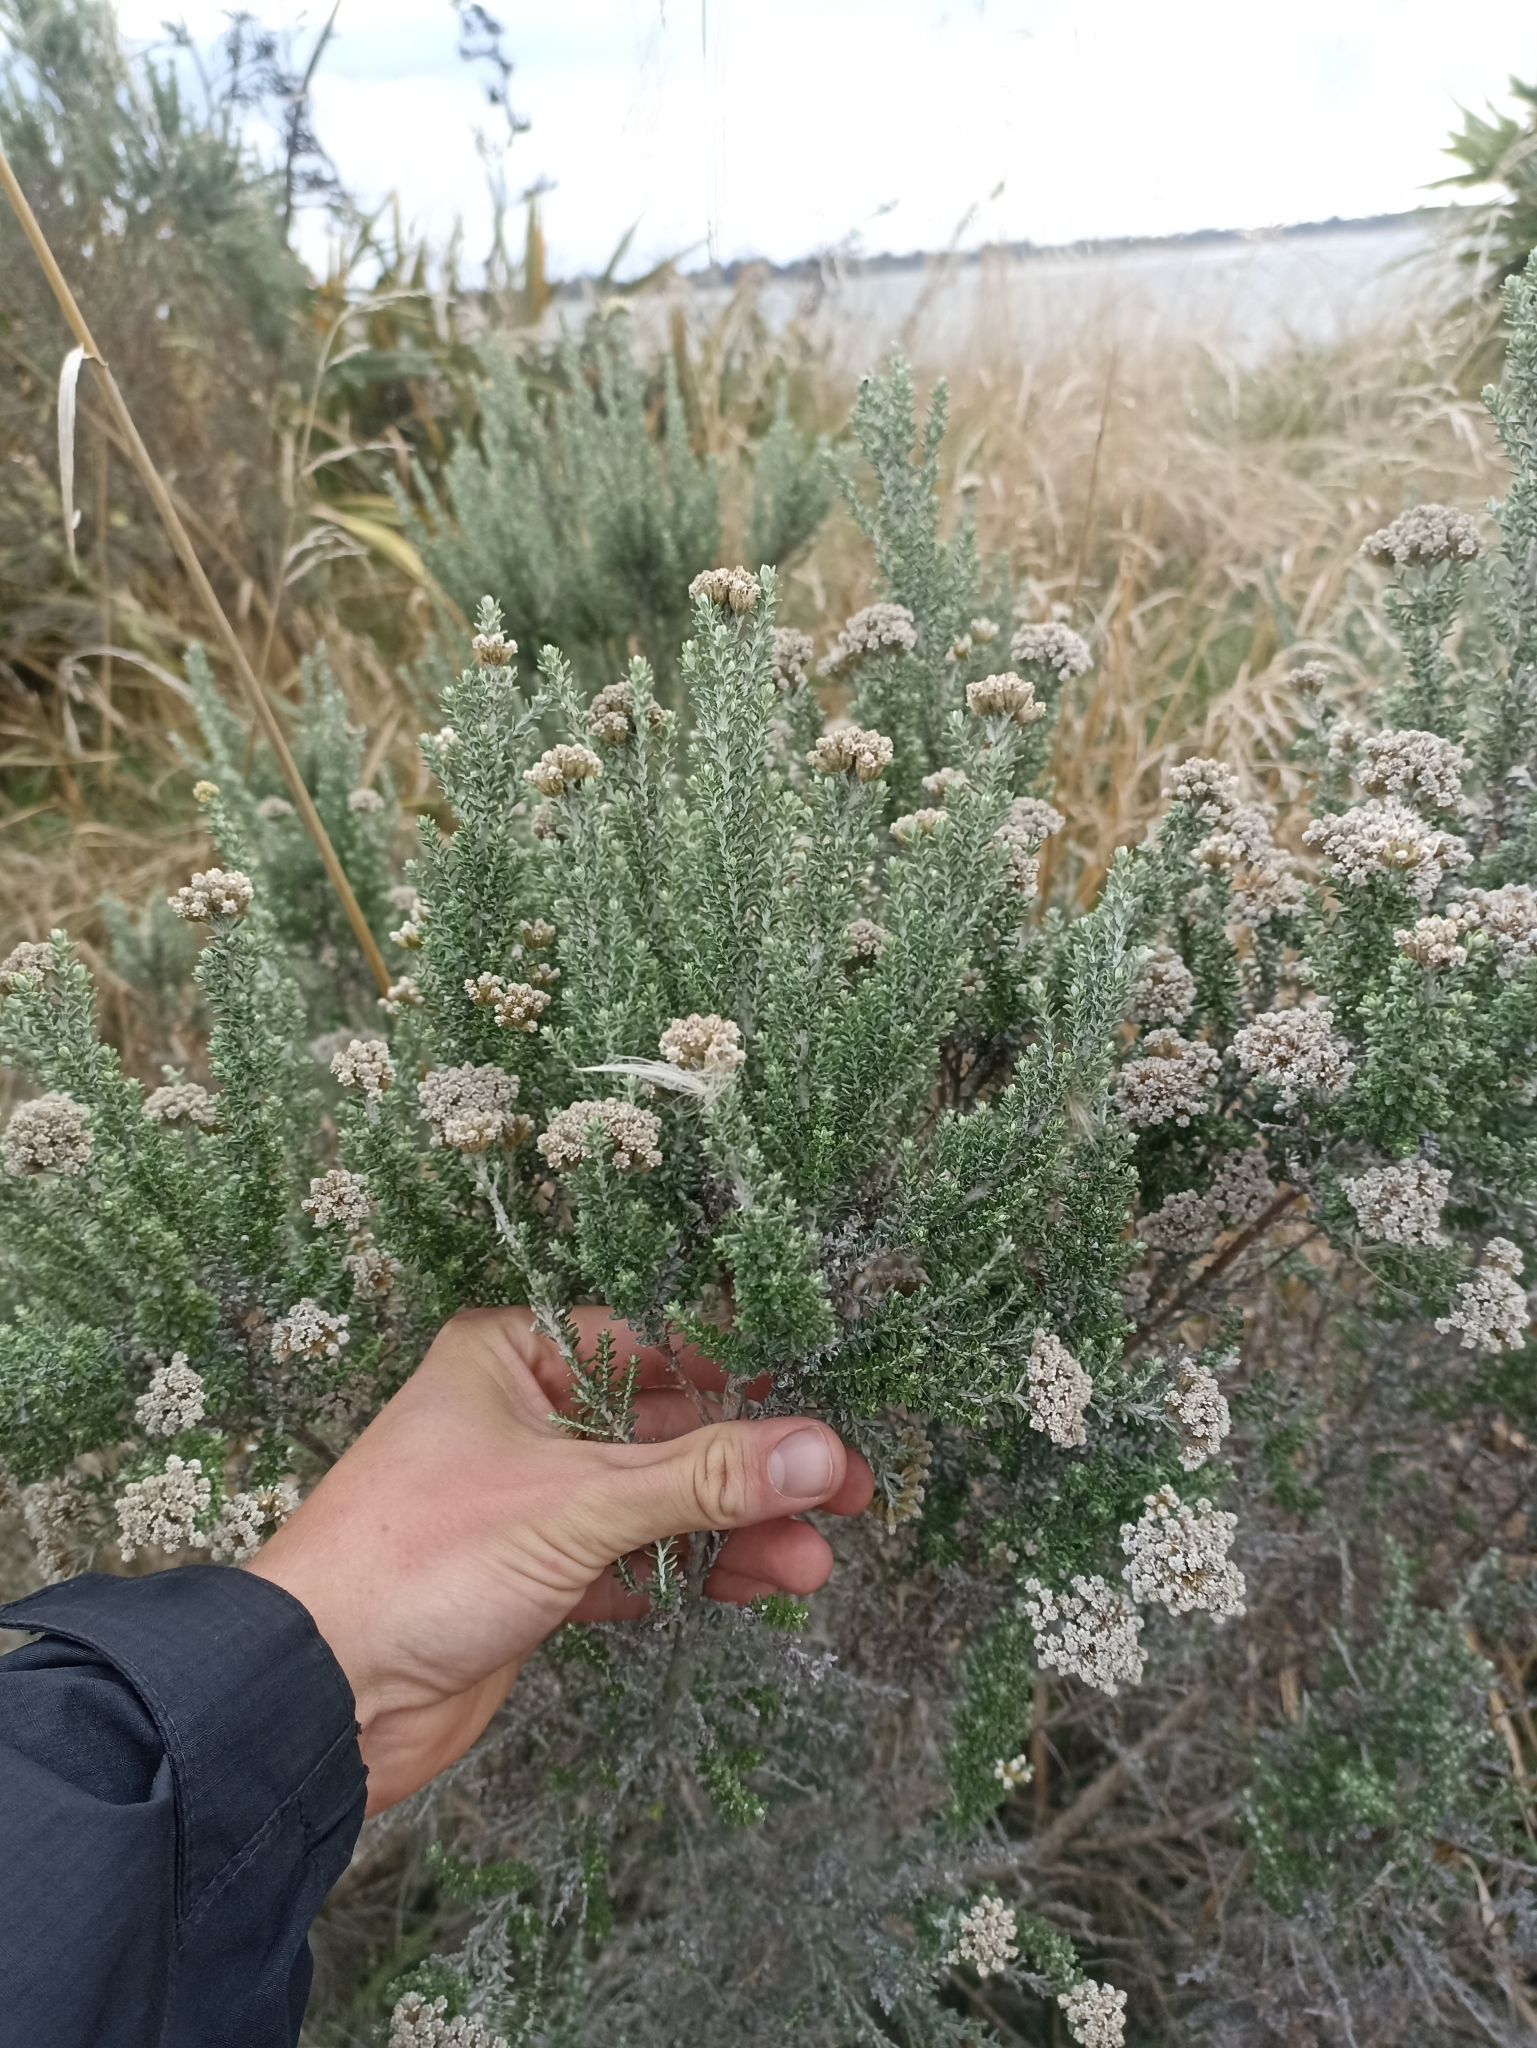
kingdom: Plantae
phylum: Tracheophyta
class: Magnoliopsida
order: Asterales
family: Asteraceae
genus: Ozothamnus
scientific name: Ozothamnus leptophyllus
